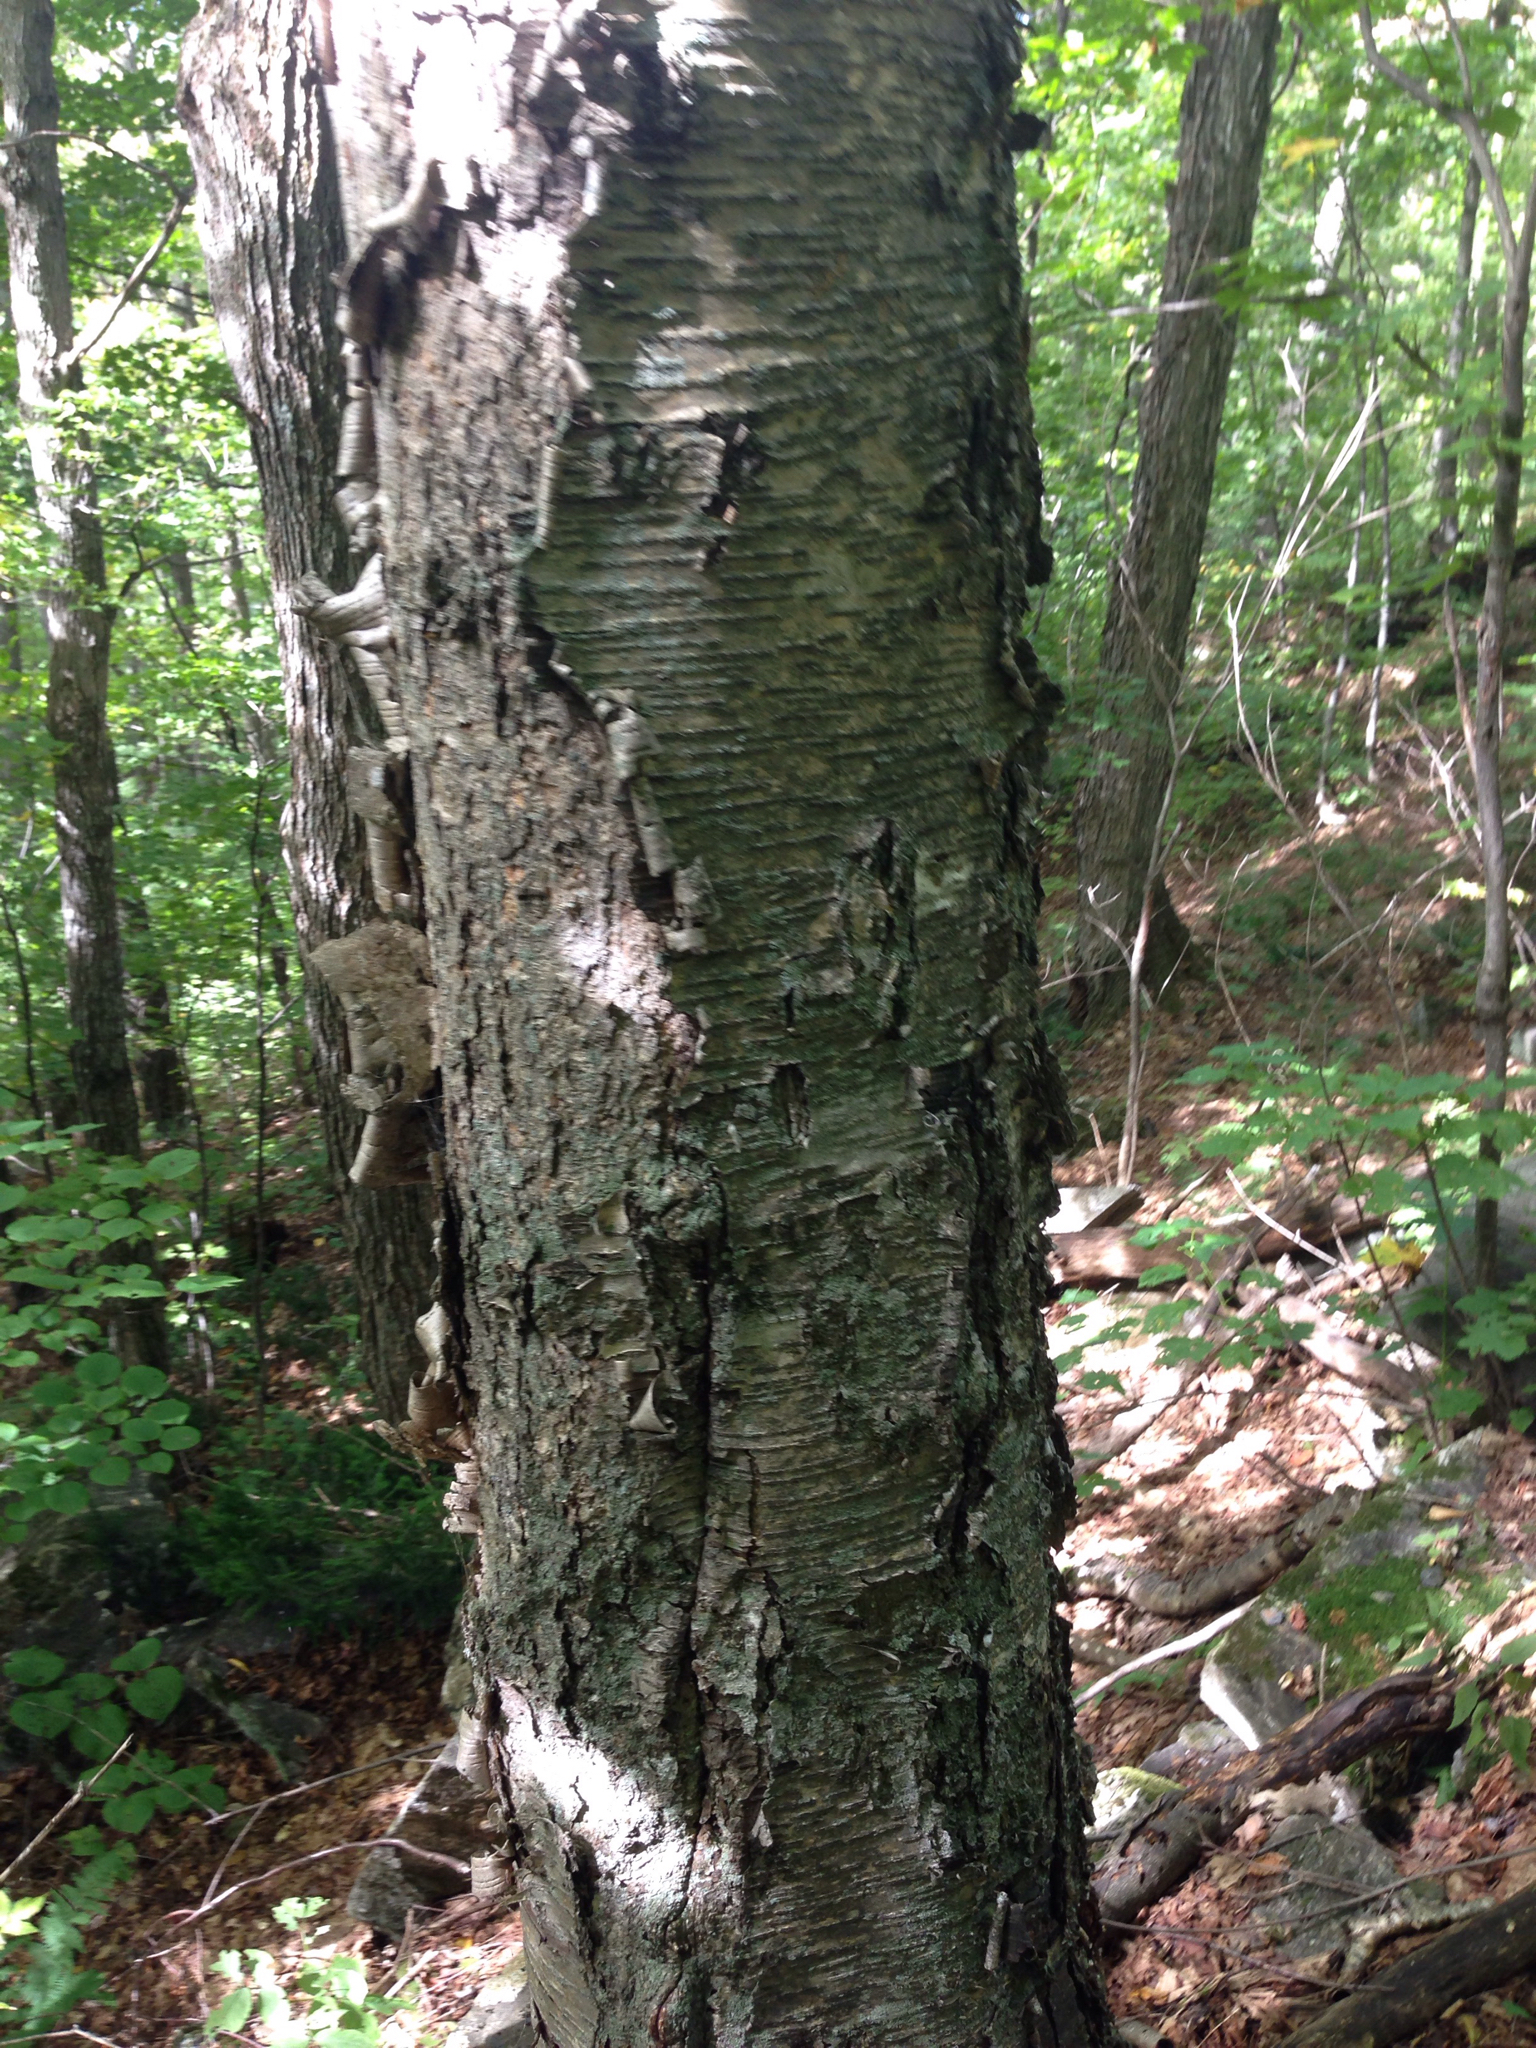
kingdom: Plantae
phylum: Tracheophyta
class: Magnoliopsida
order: Fagales
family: Betulaceae
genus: Betula
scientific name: Betula alleghaniensis
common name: Yellow birch
